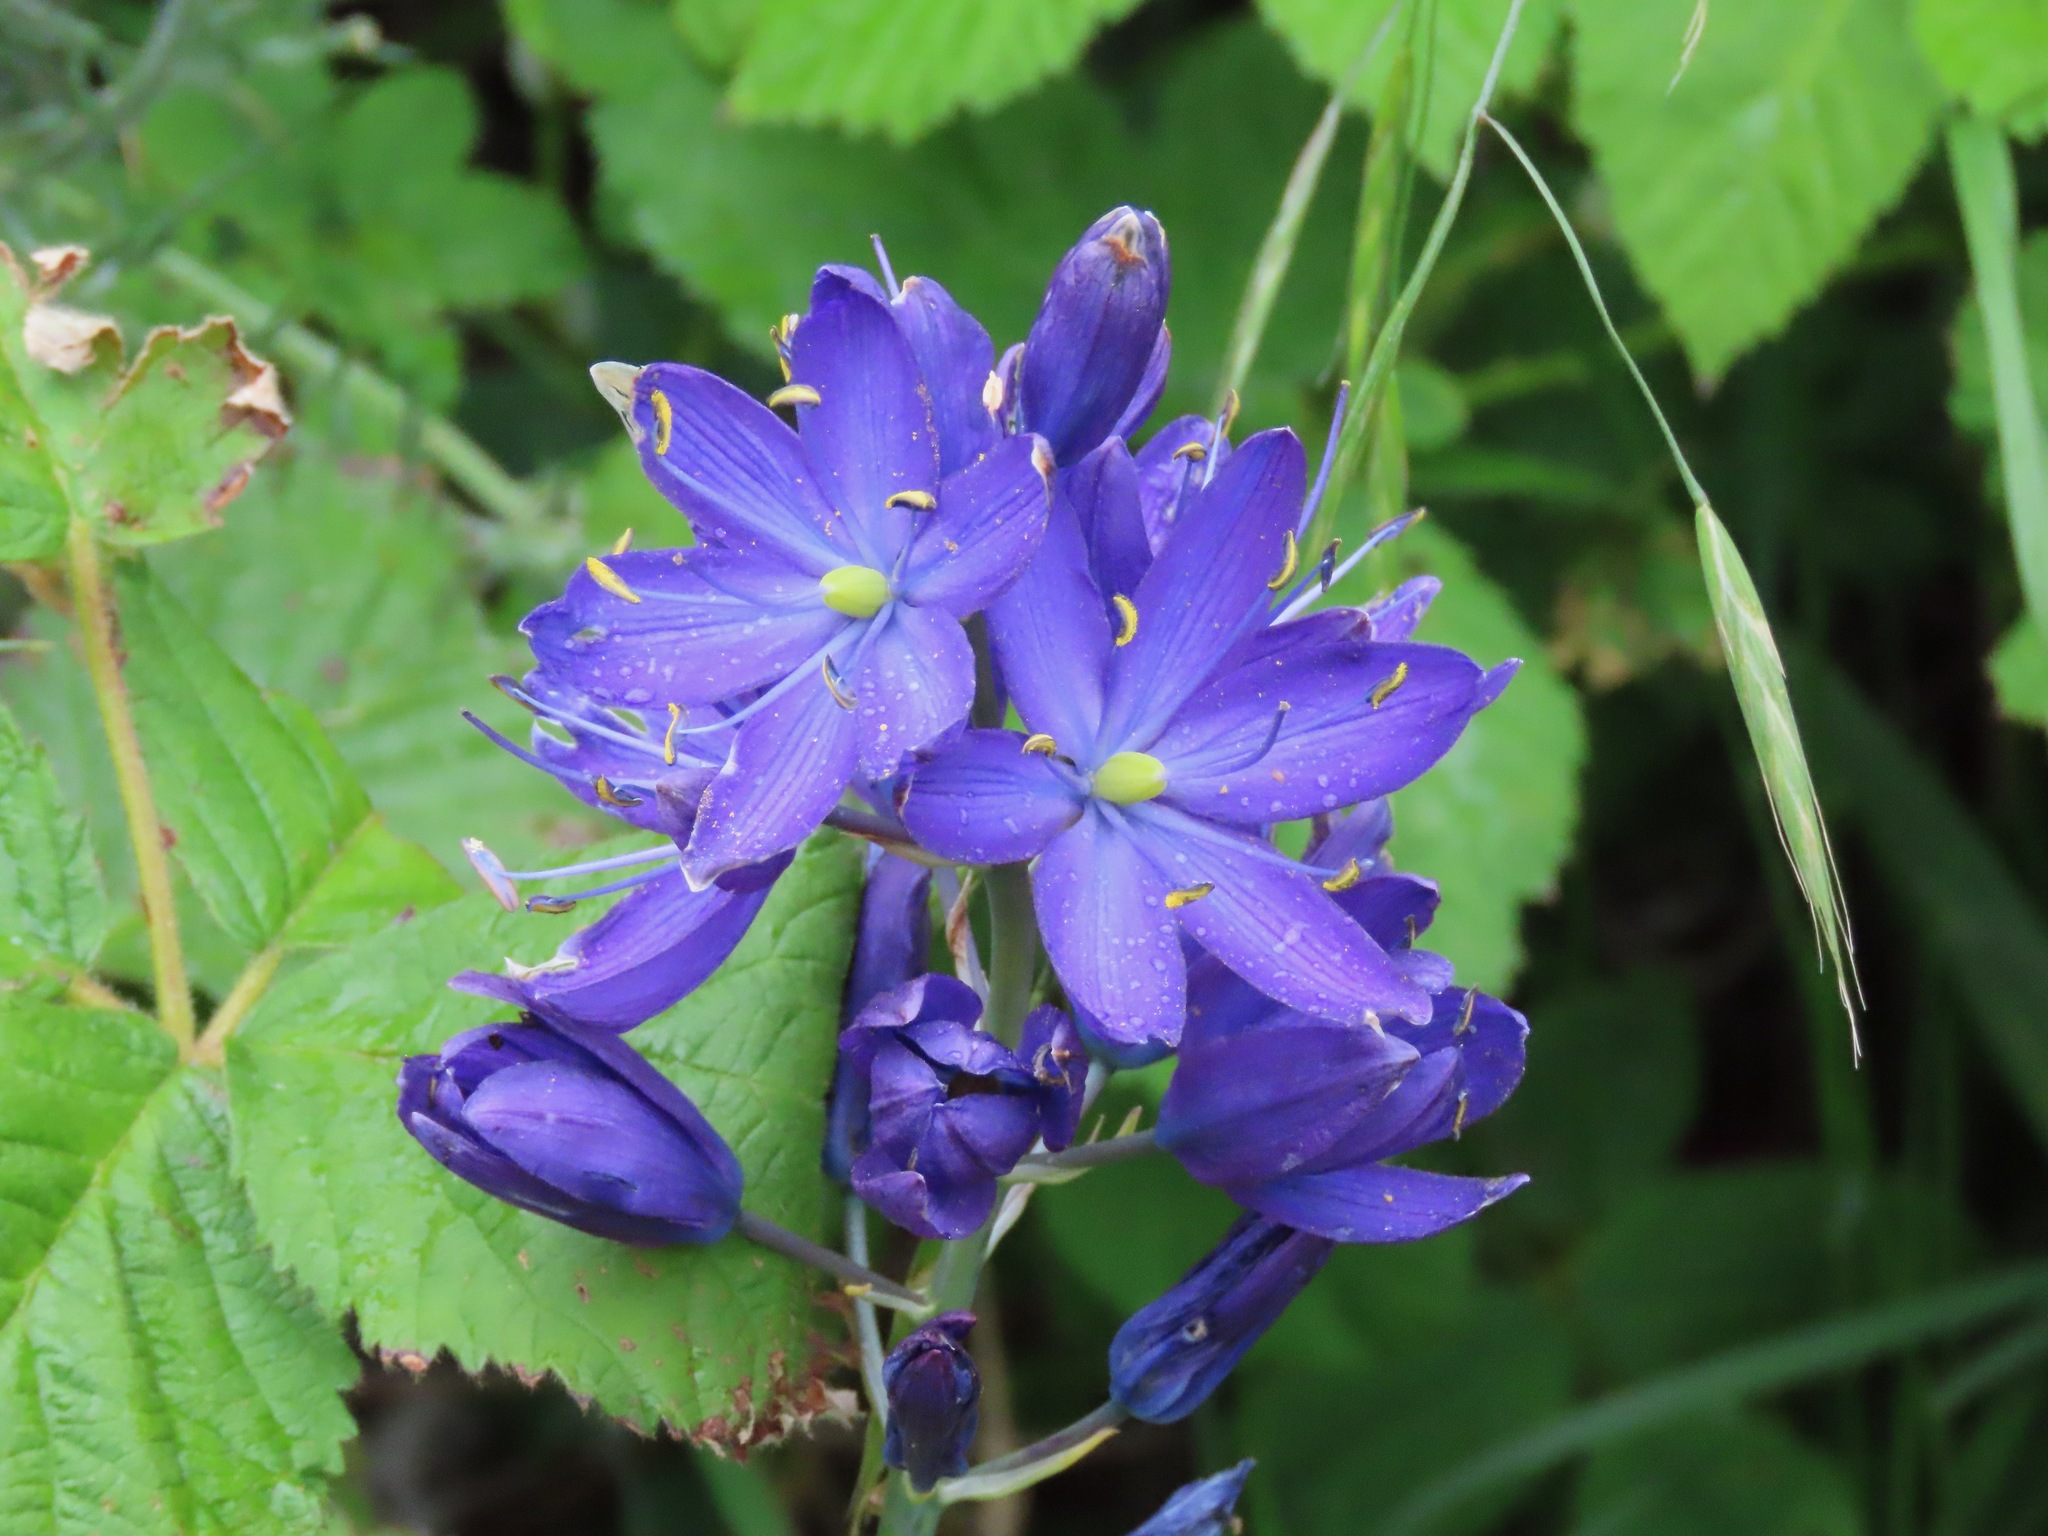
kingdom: Plantae
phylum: Tracheophyta
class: Liliopsida
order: Asparagales
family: Asparagaceae
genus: Camassia
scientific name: Camassia leichtlinii
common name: Leichtlin's camas
